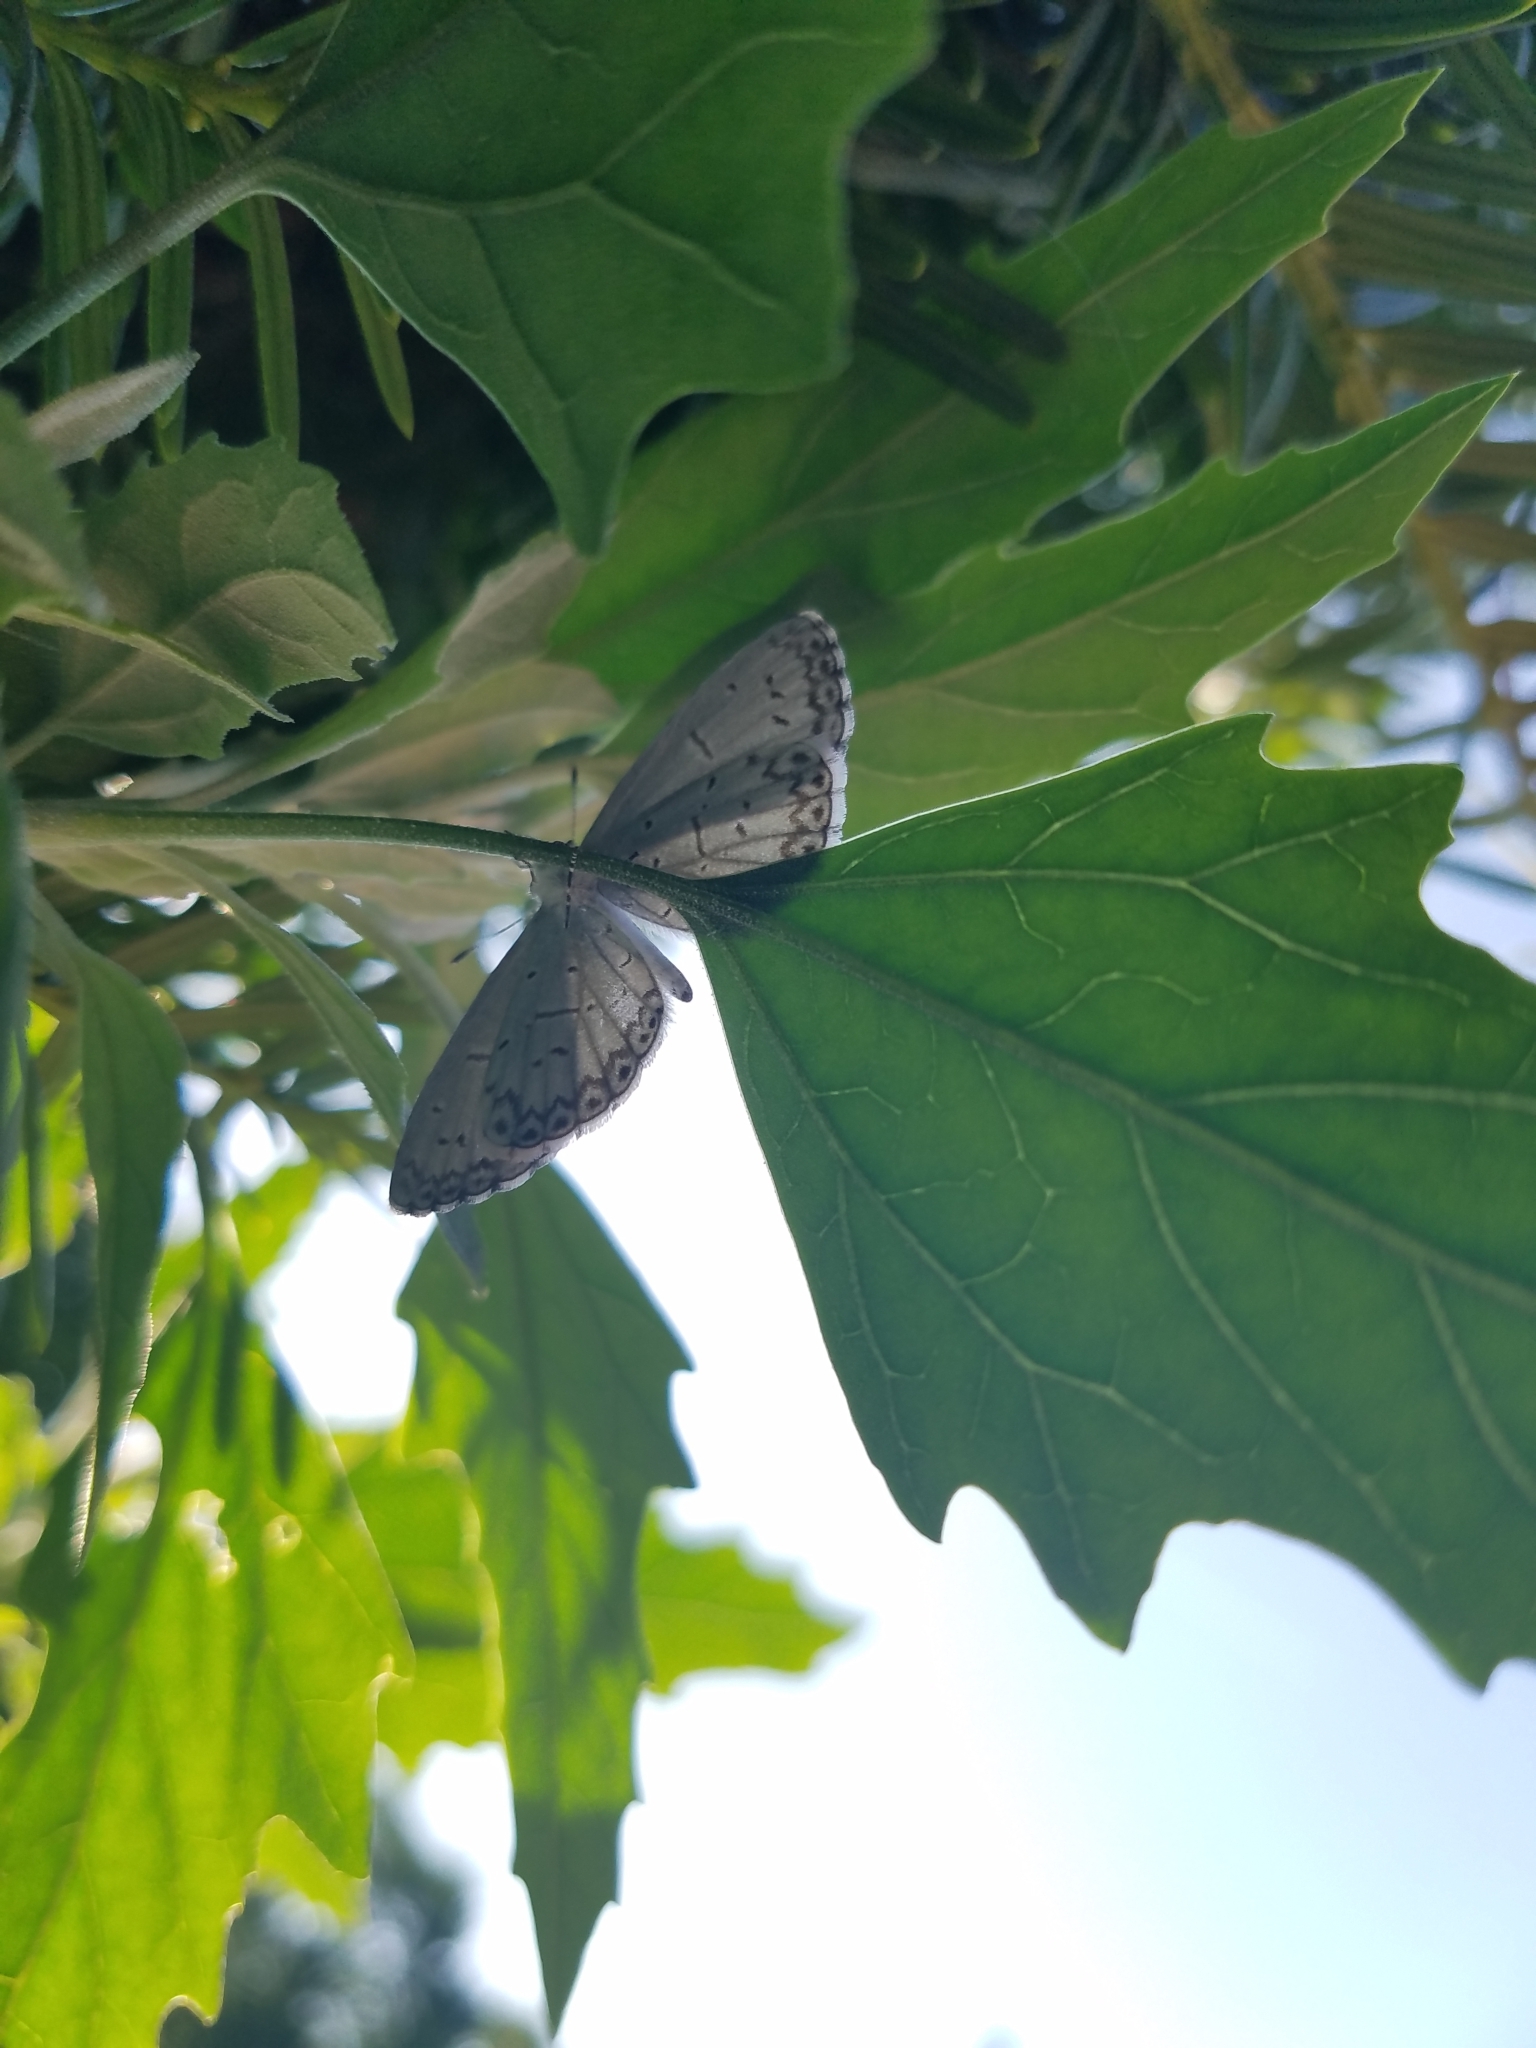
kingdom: Animalia
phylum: Arthropoda
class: Insecta
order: Lepidoptera
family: Lycaenidae
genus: Cyaniris
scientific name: Cyaniris neglecta
